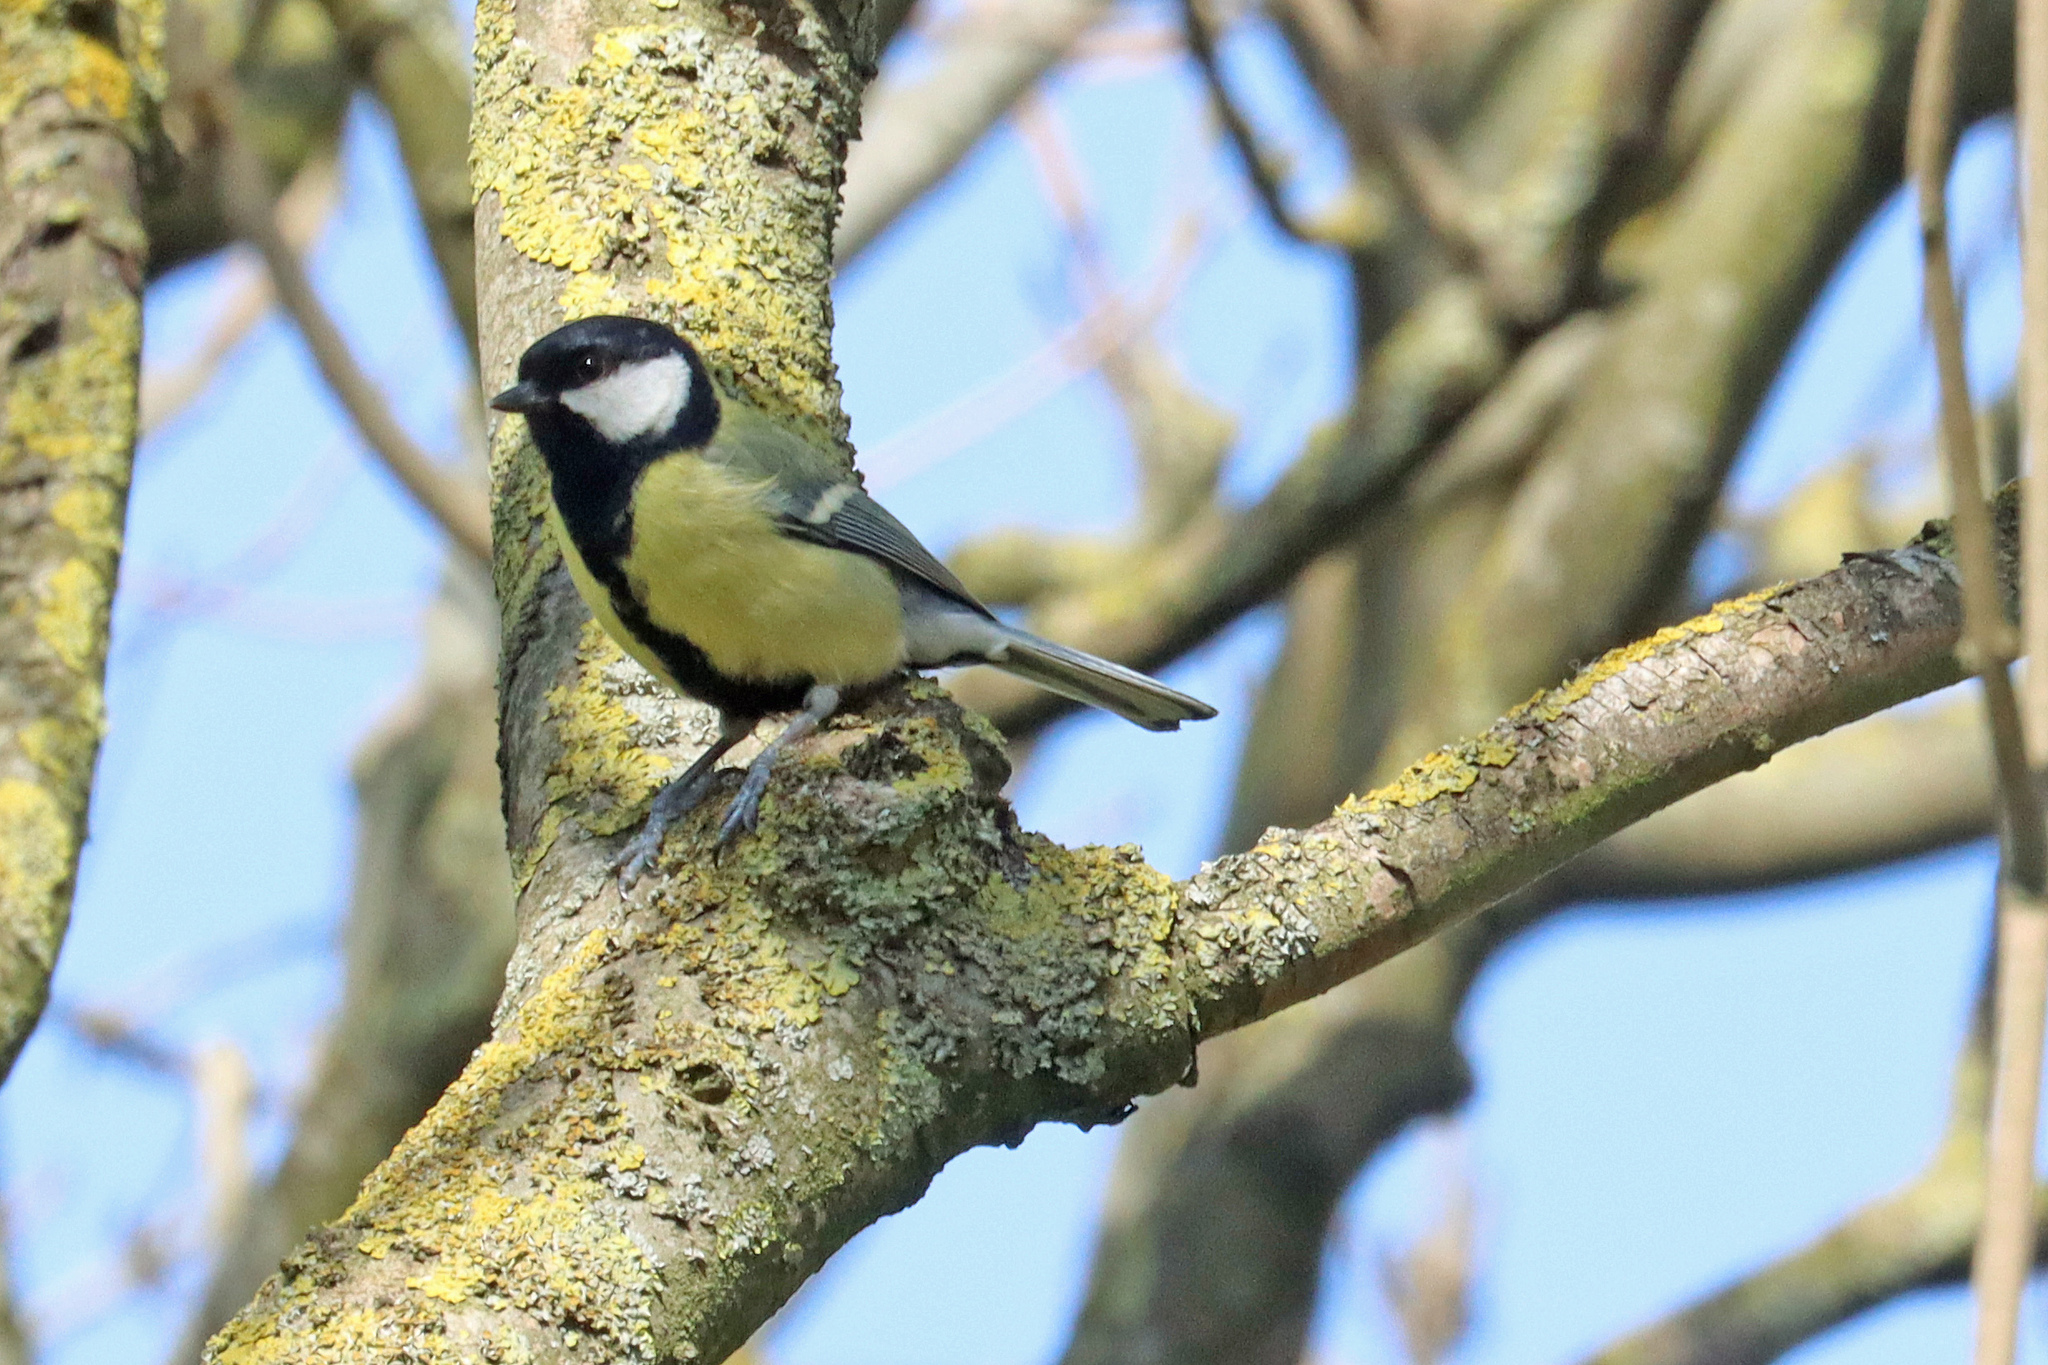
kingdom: Animalia
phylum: Chordata
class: Aves
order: Passeriformes
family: Paridae
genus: Parus
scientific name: Parus major
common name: Great tit
